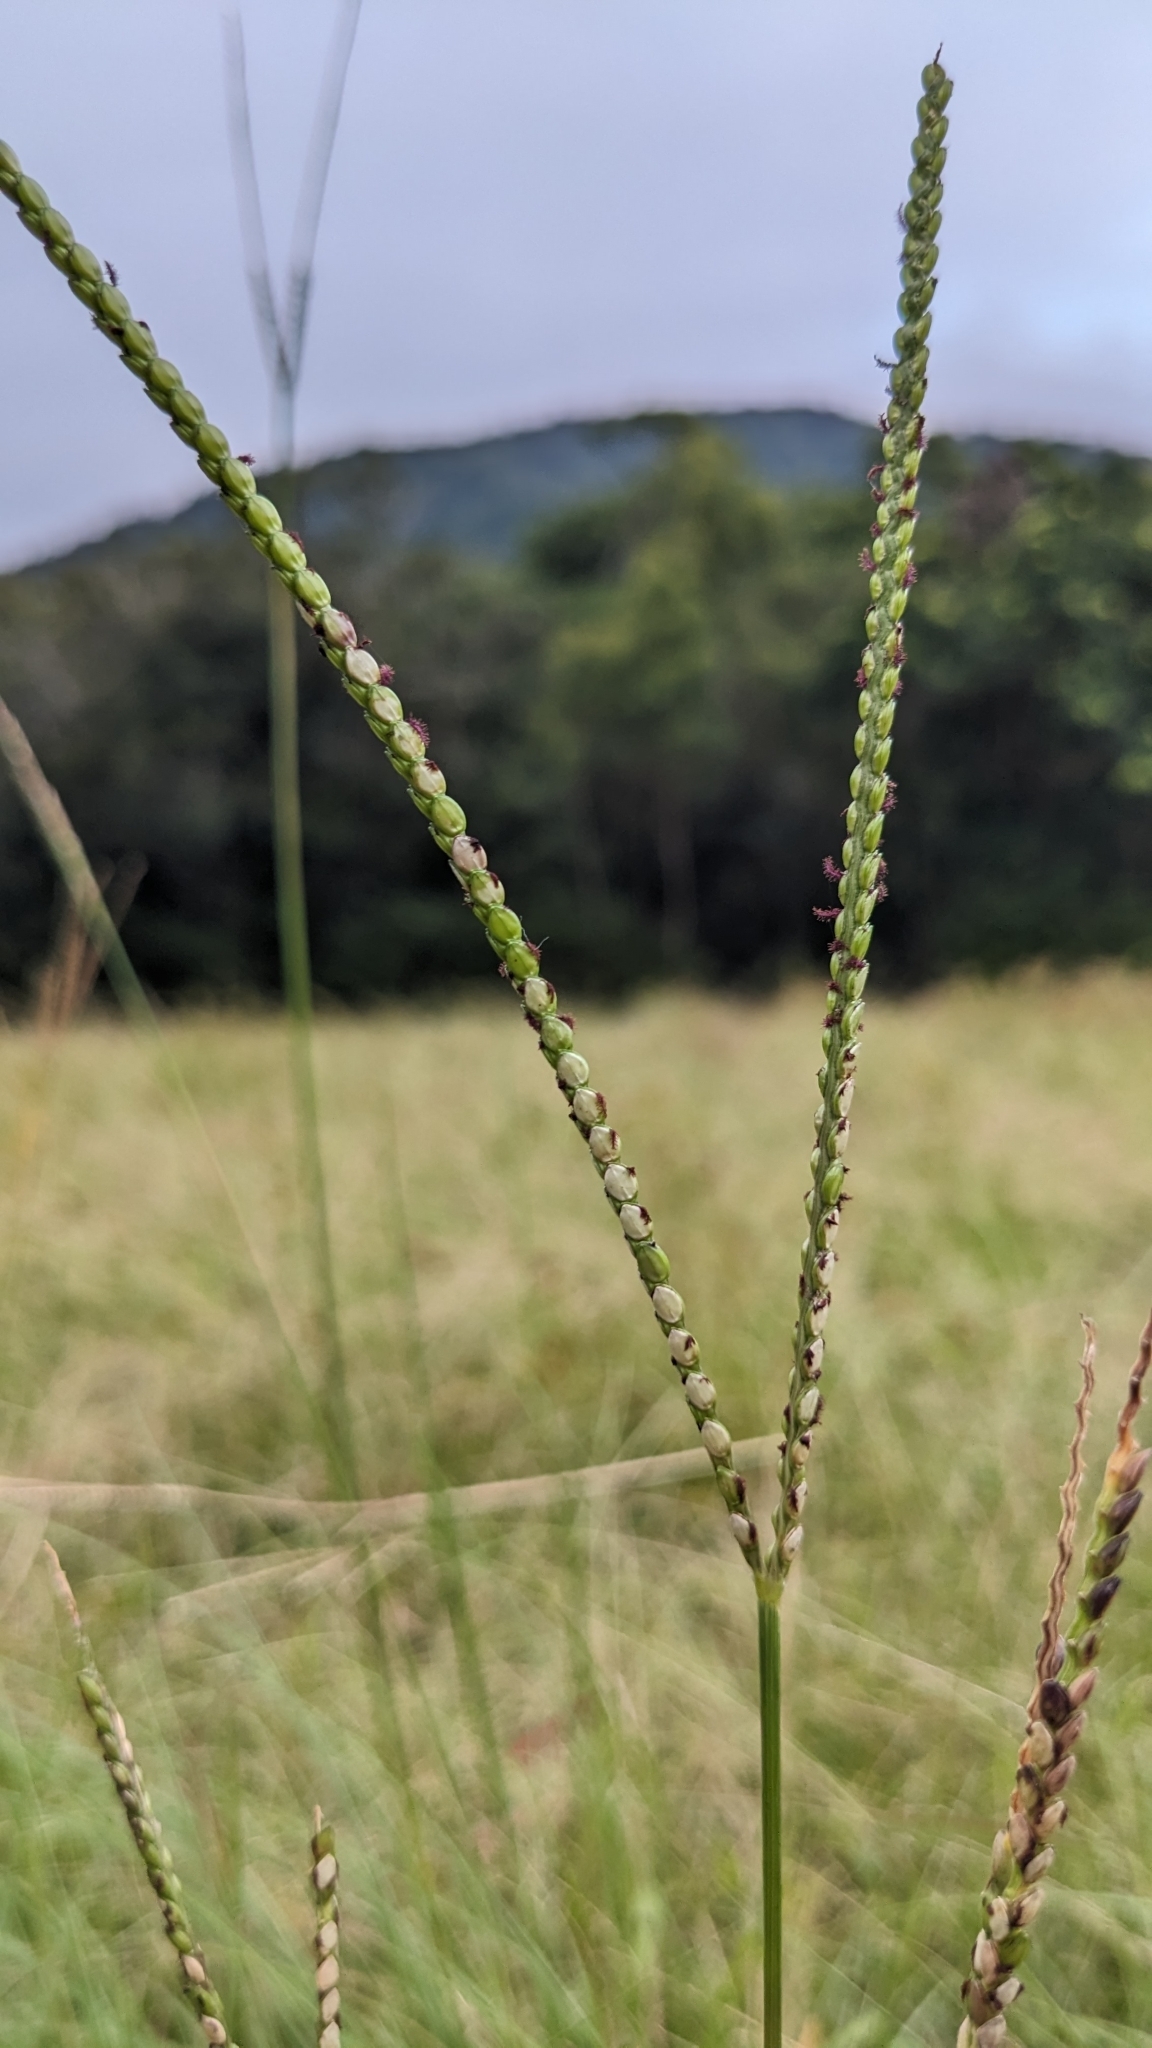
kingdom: Plantae
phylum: Tracheophyta
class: Liliopsida
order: Poales
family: Poaceae
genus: Paspalum
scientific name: Paspalum notatum
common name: Bahiagrass
